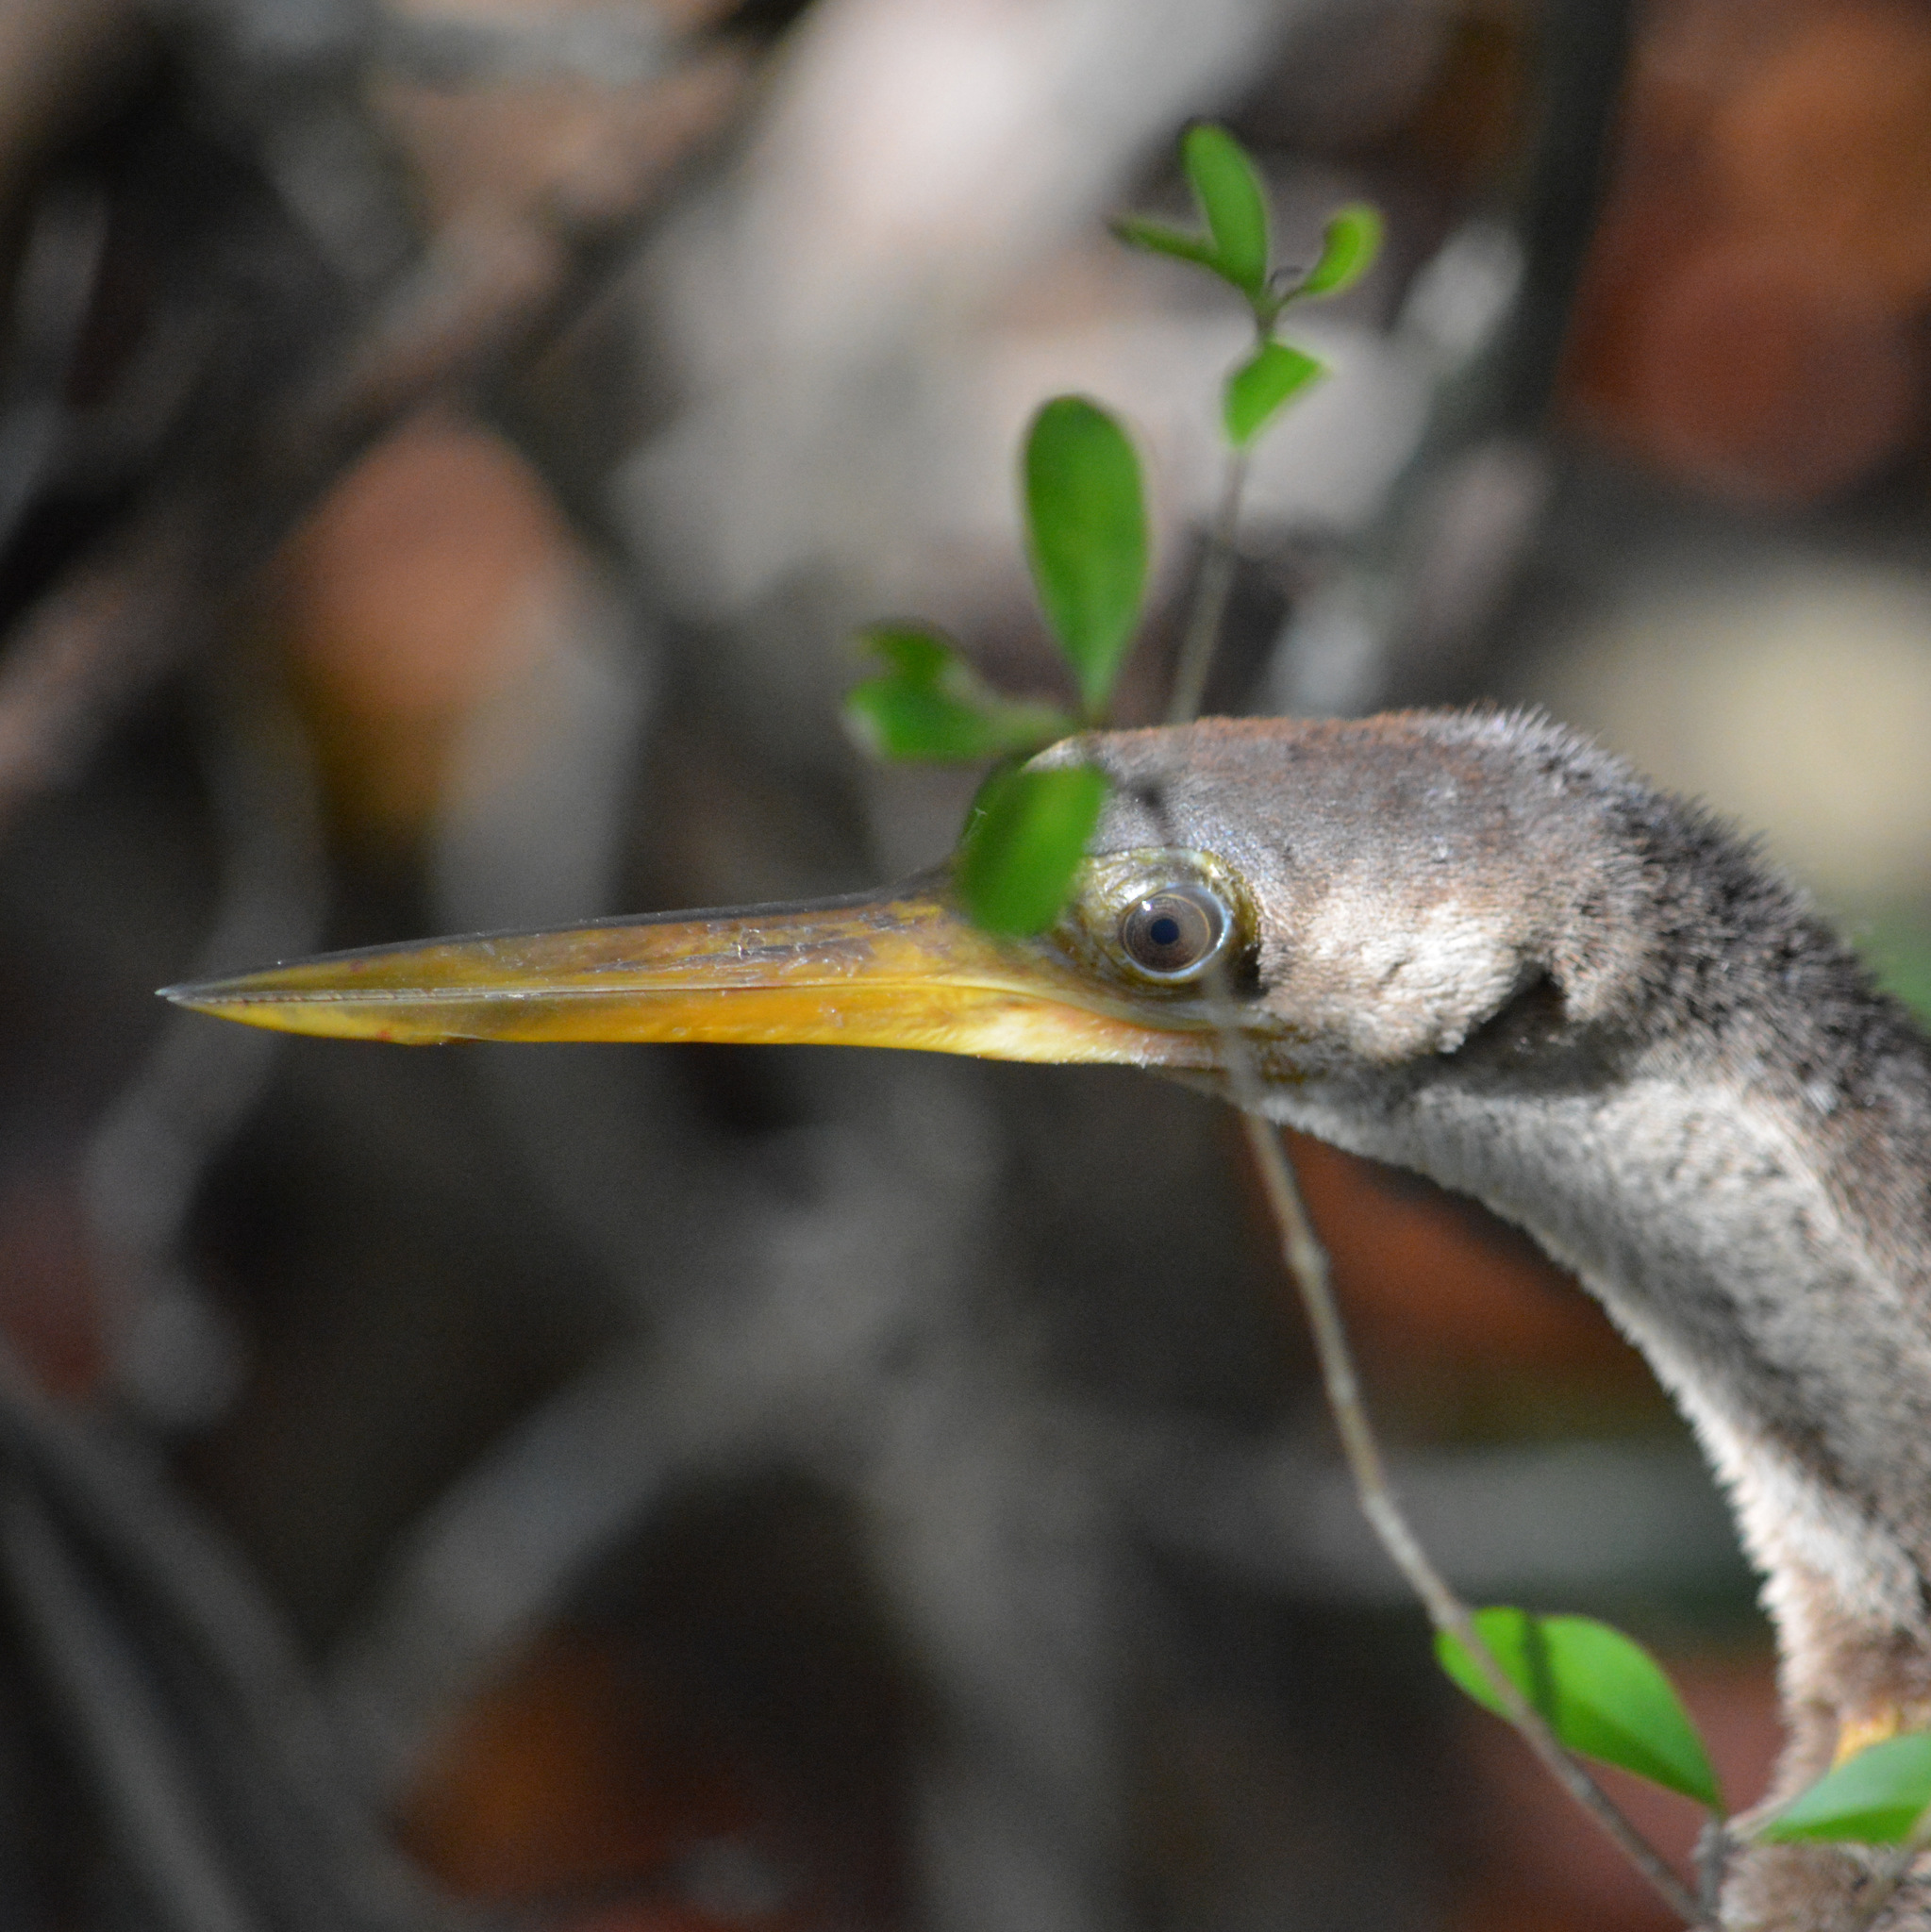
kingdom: Animalia
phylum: Chordata
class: Aves
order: Suliformes
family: Anhingidae
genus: Anhinga
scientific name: Anhinga anhinga
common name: Anhinga
